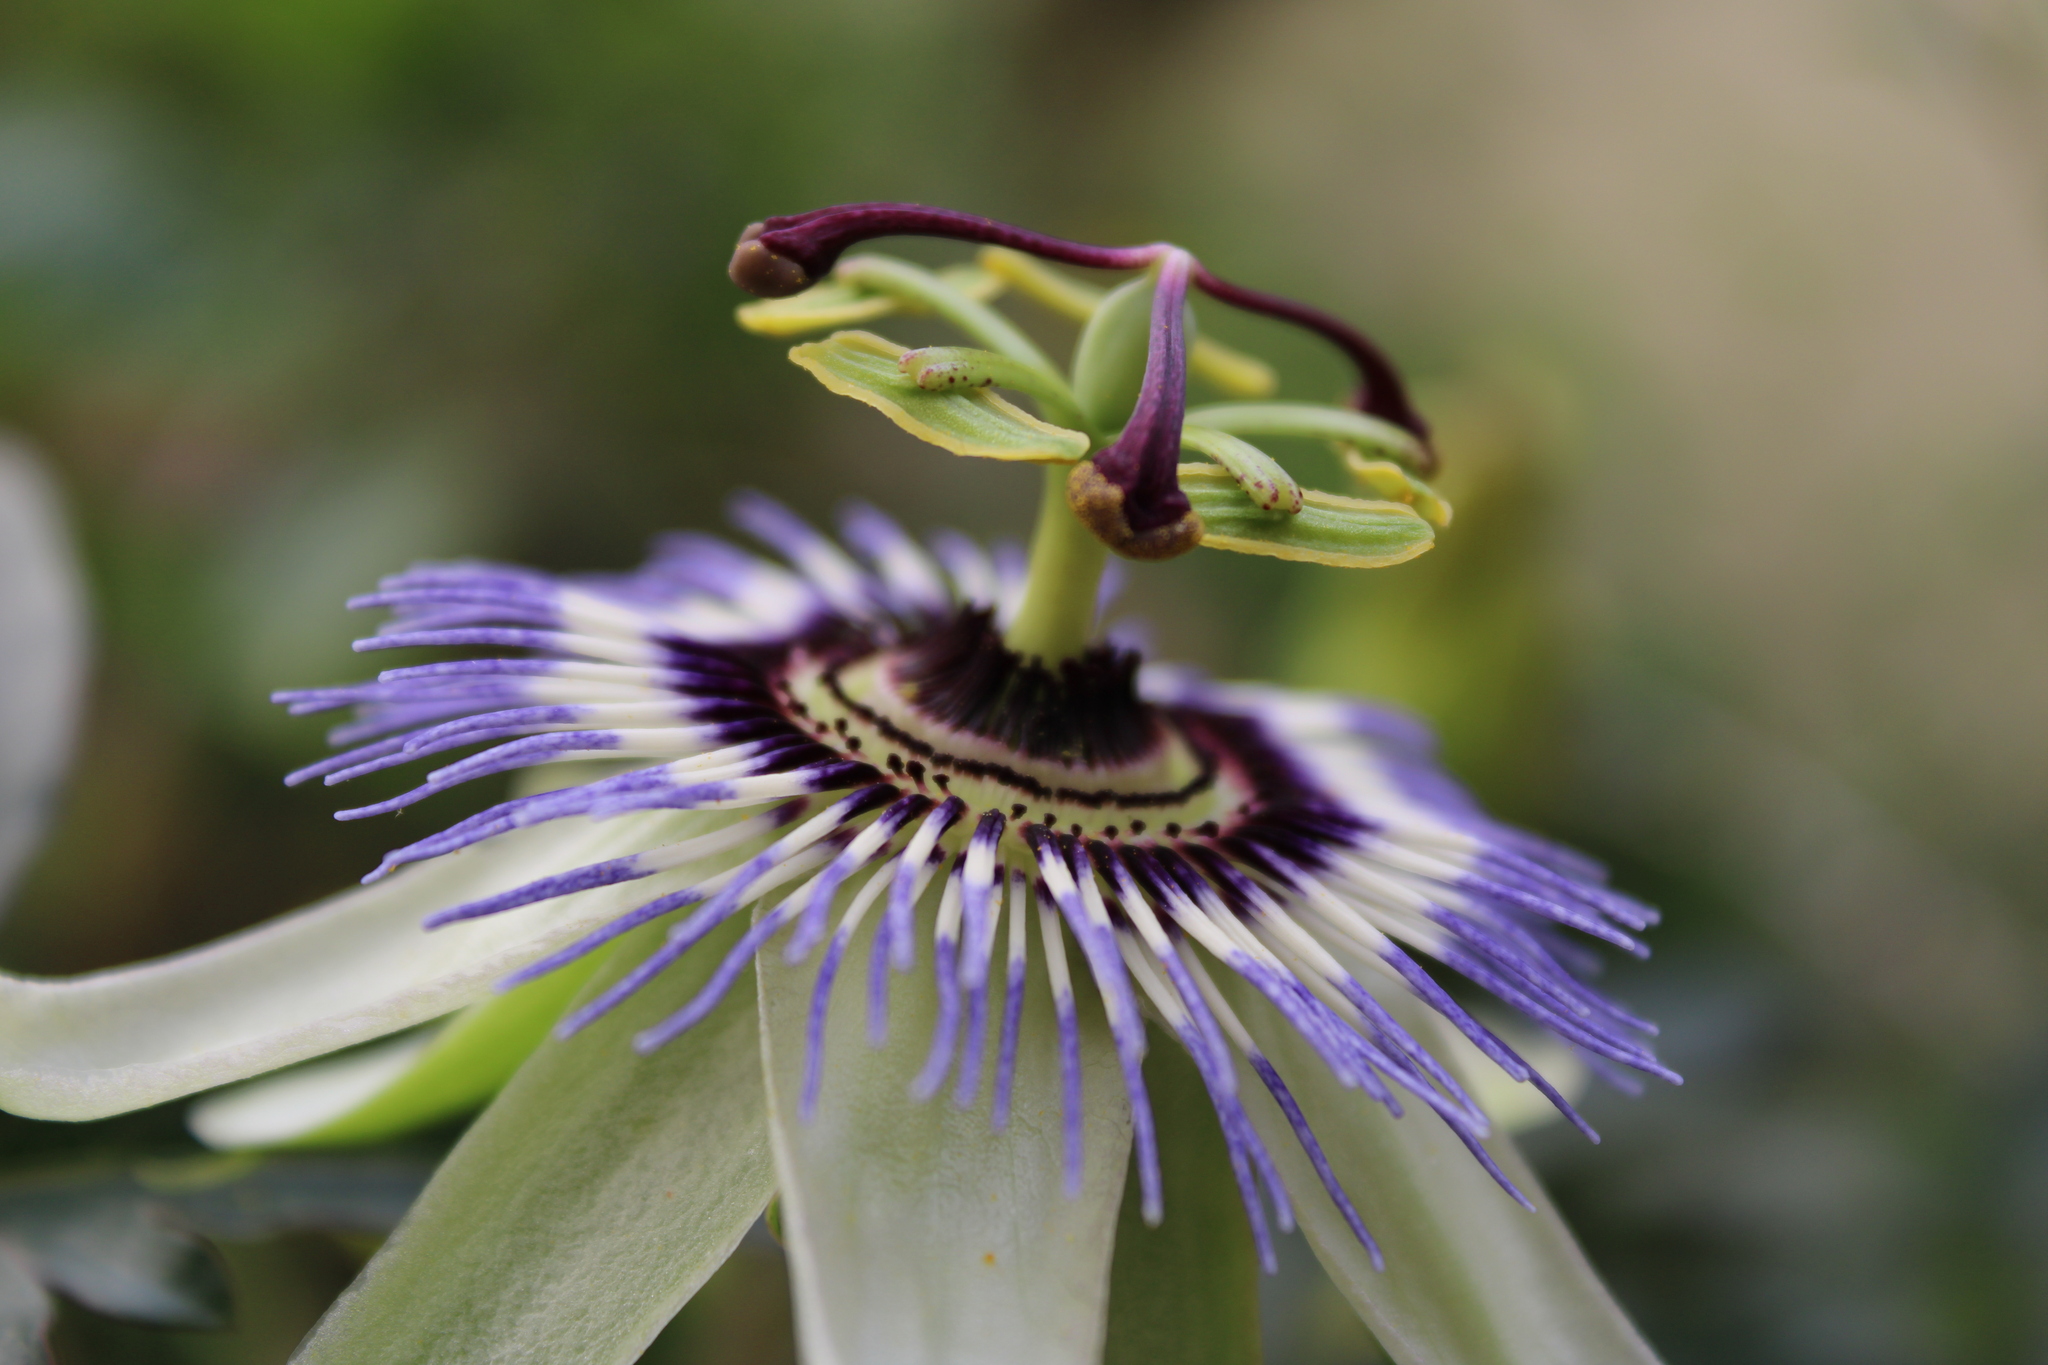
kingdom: Plantae
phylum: Tracheophyta
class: Magnoliopsida
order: Malpighiales
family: Passifloraceae
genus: Passiflora
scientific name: Passiflora caerulea
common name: Blue passionflower
